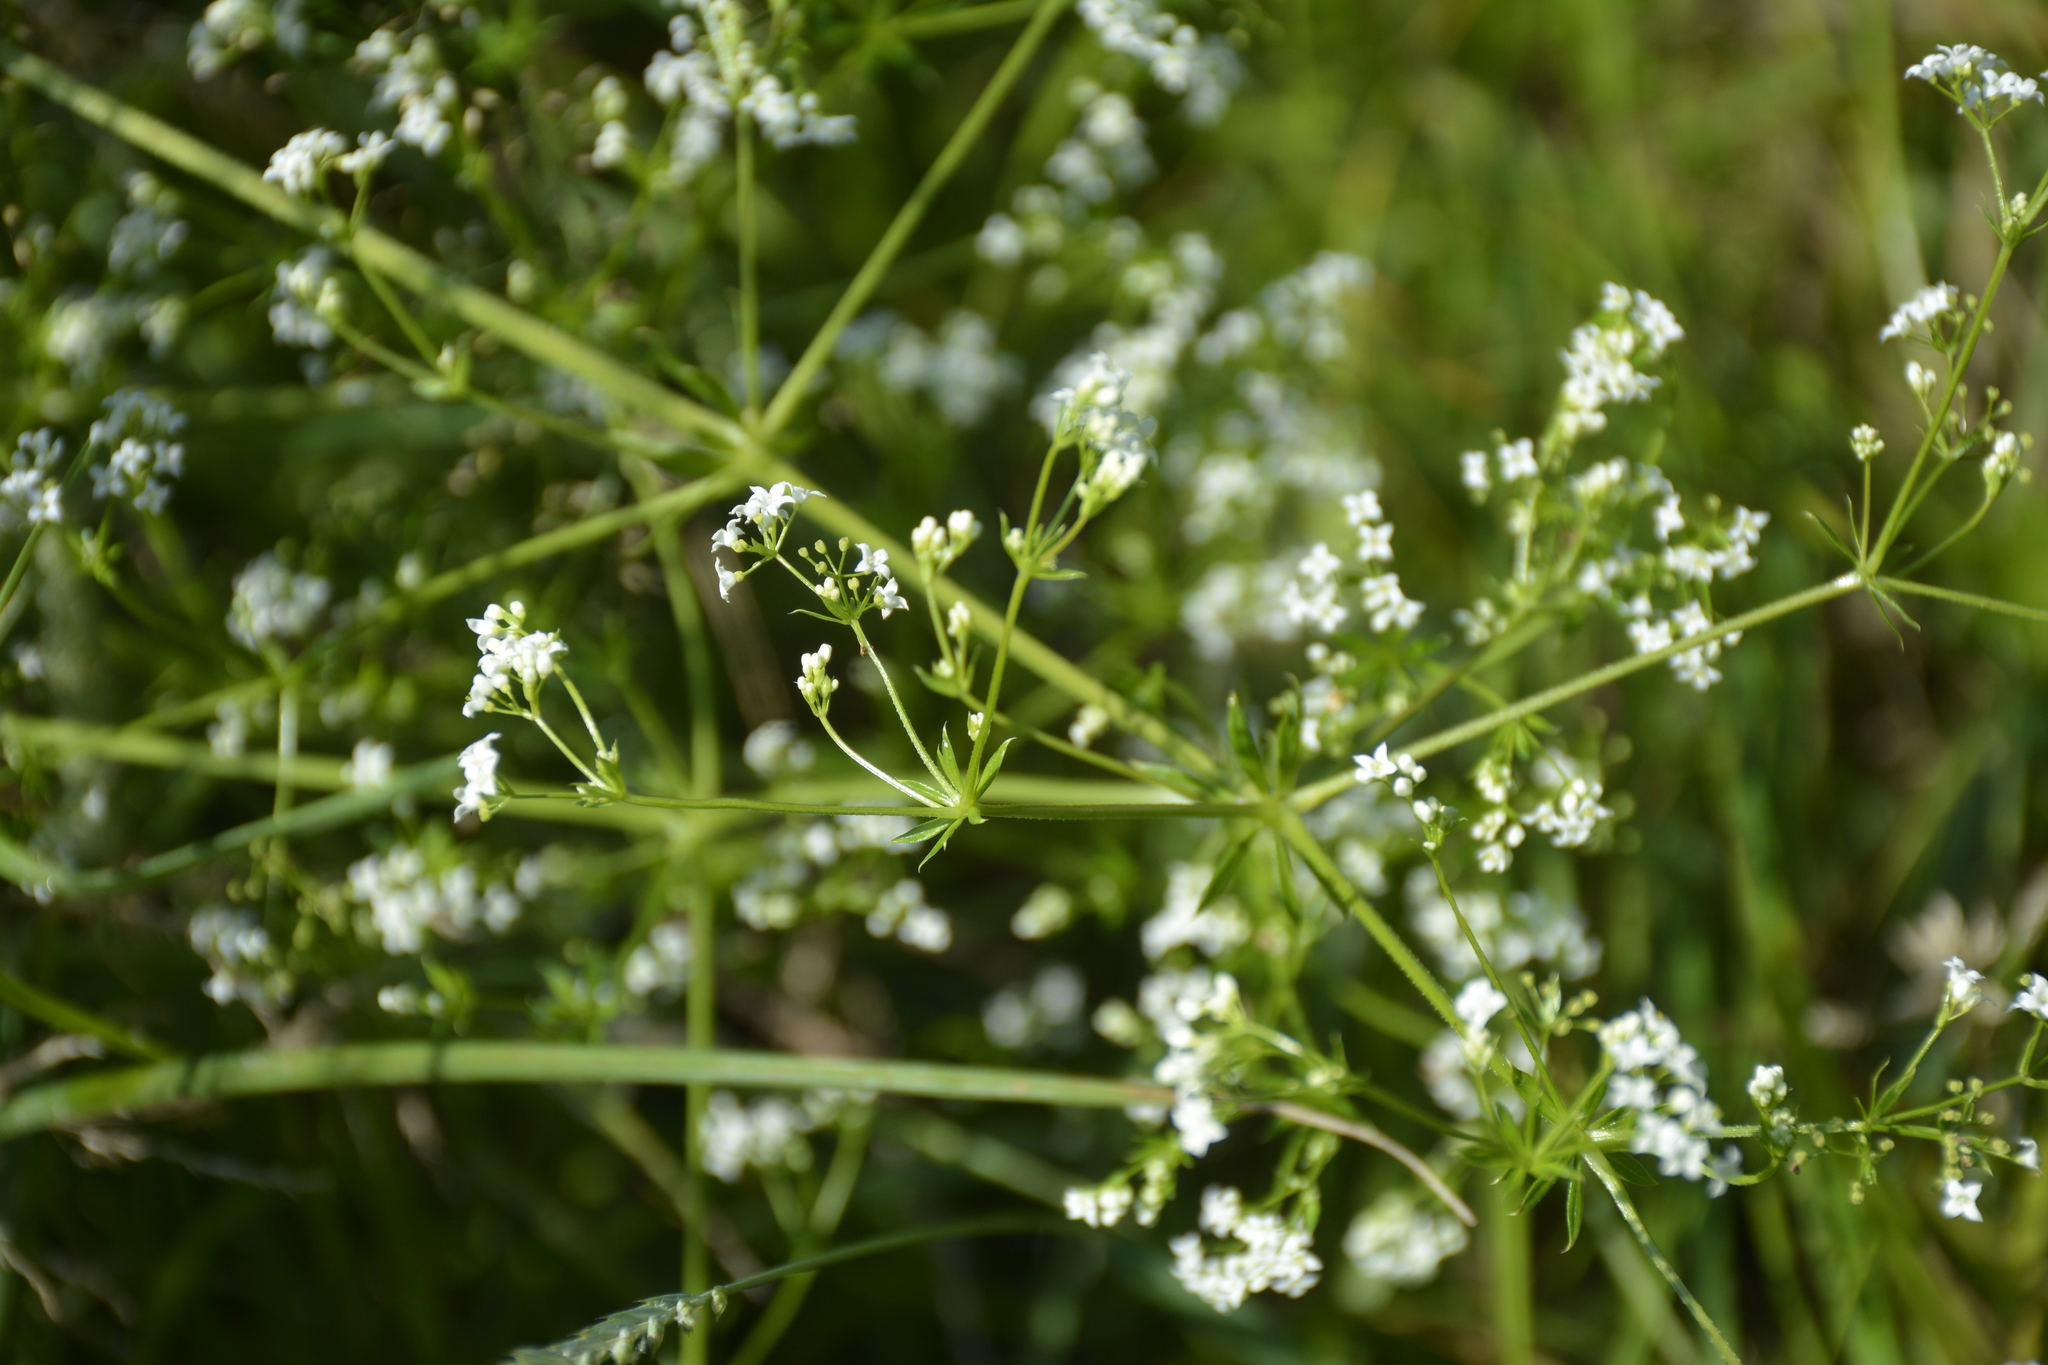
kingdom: Plantae
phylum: Tracheophyta
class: Magnoliopsida
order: Gentianales
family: Rubiaceae
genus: Galium
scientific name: Galium rivale
